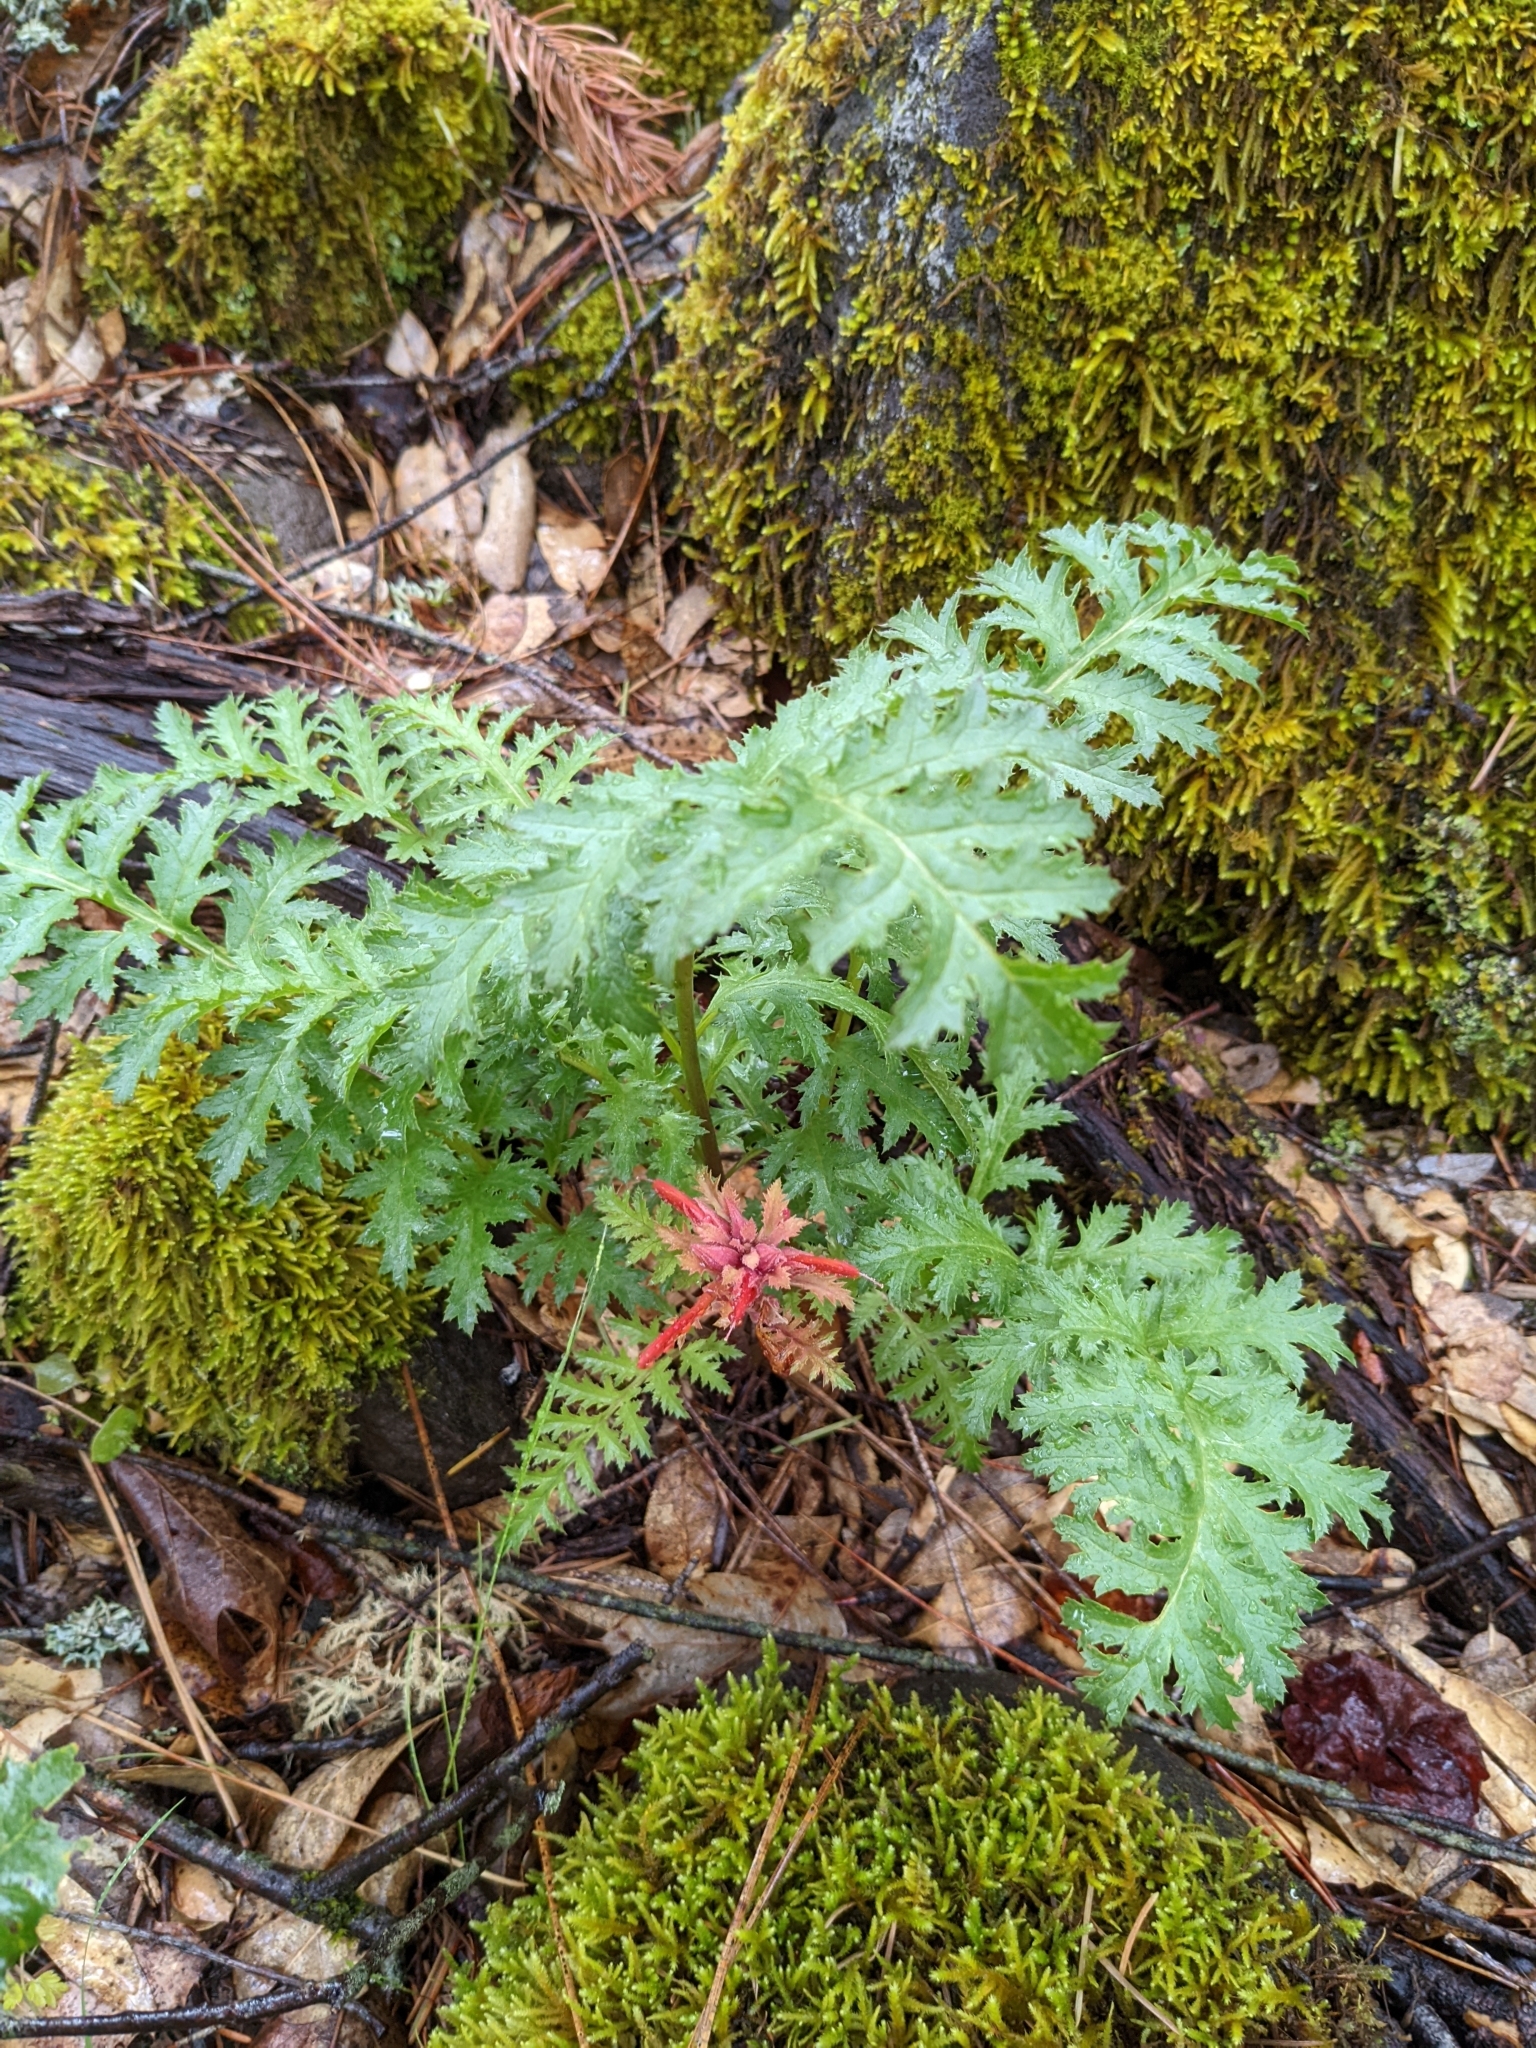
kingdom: Plantae
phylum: Tracheophyta
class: Magnoliopsida
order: Lamiales
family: Orobanchaceae
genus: Pedicularis
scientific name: Pedicularis densiflora
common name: Indian warrior
